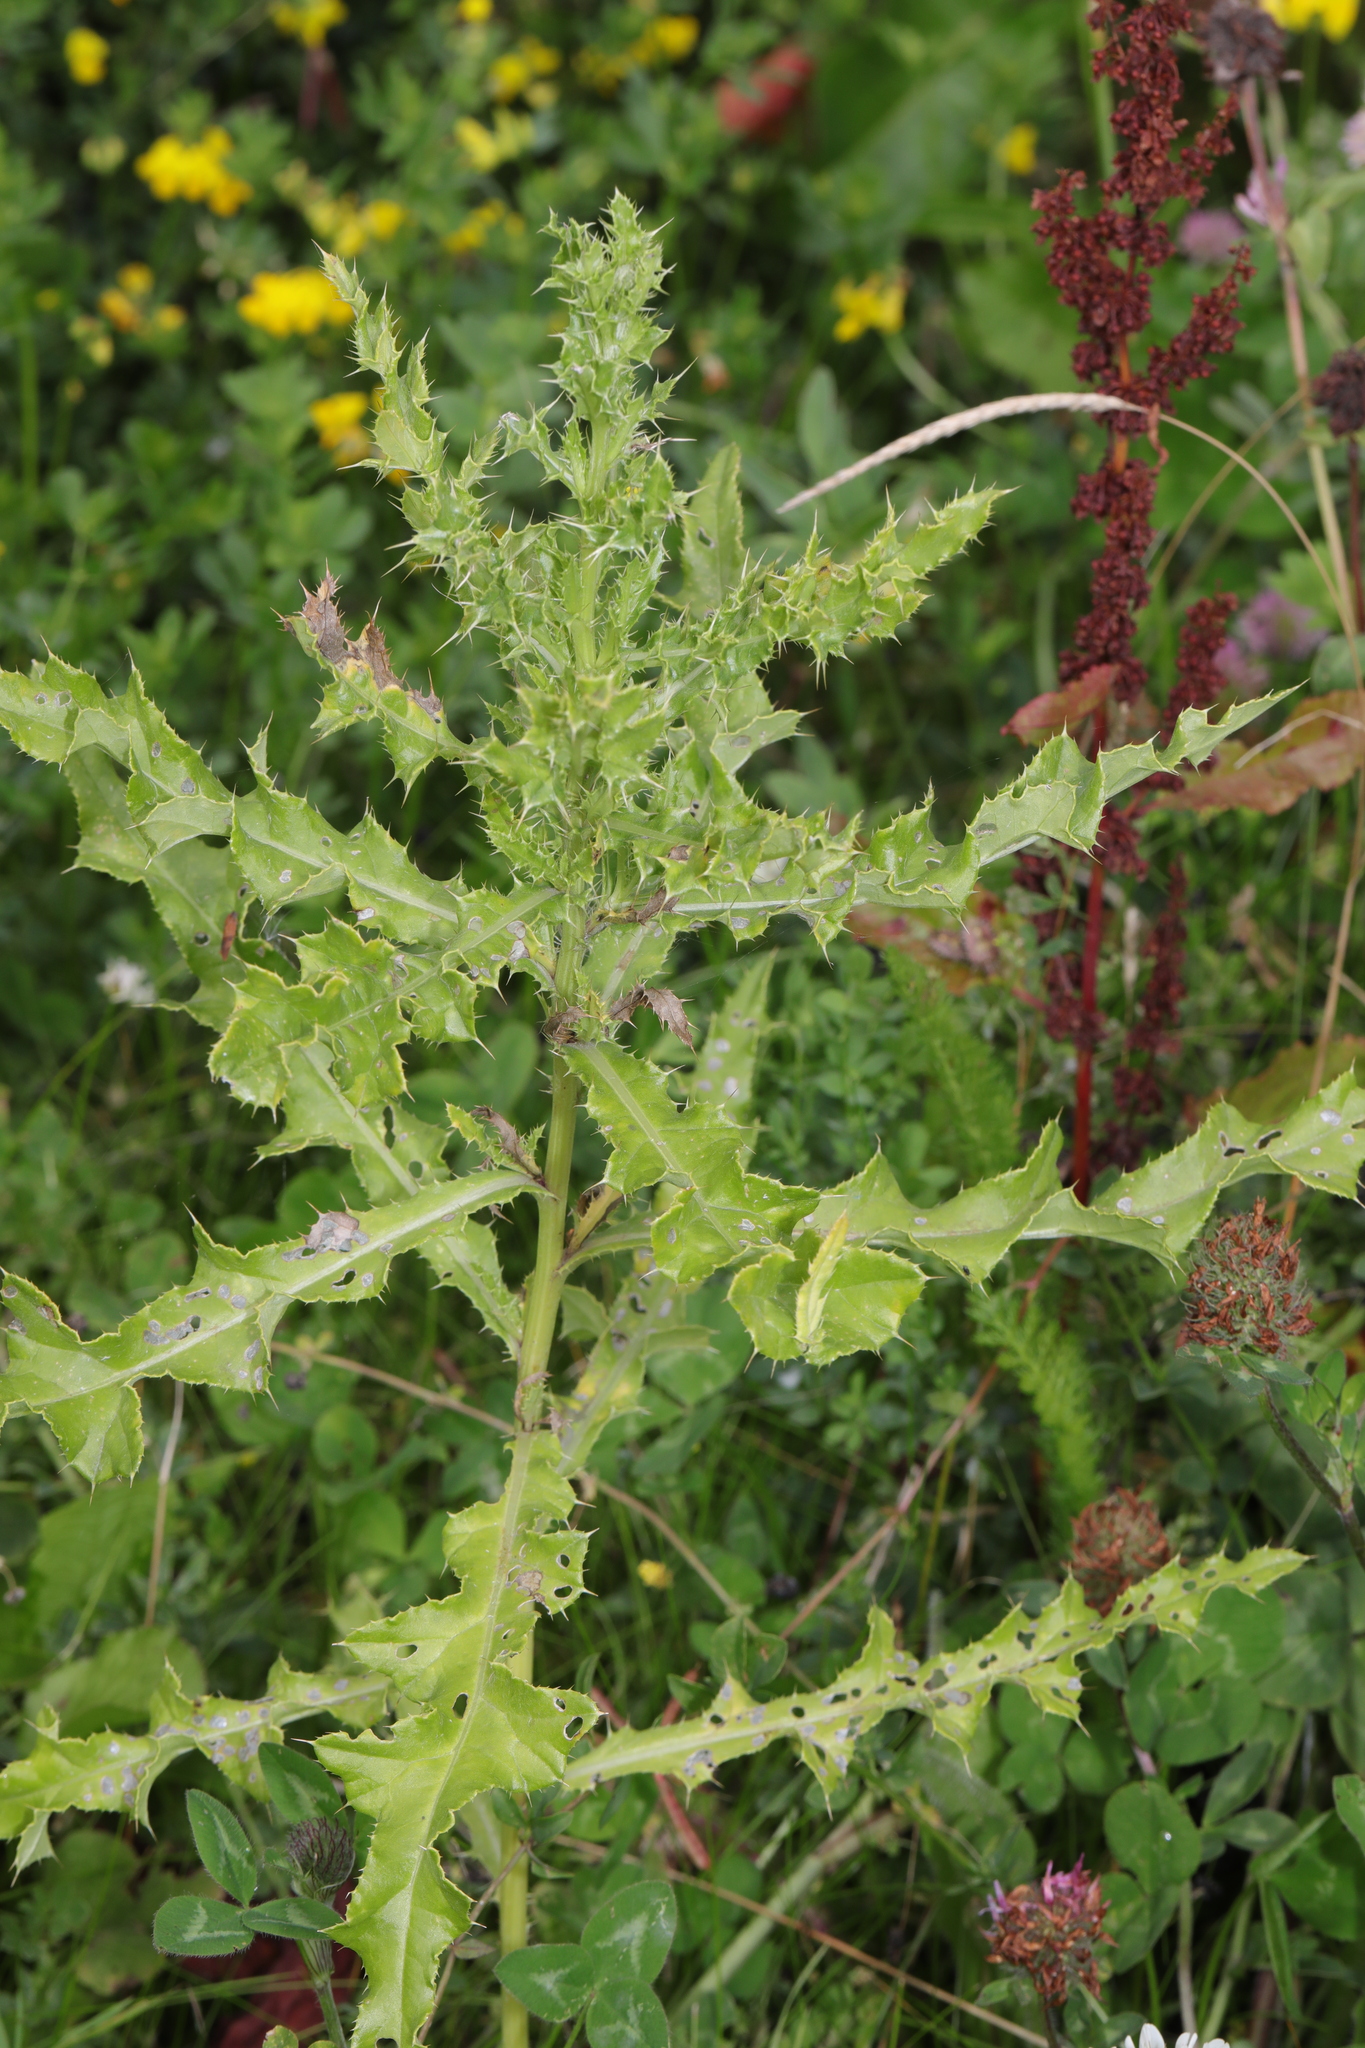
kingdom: Plantae
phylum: Tracheophyta
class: Magnoliopsida
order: Asterales
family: Asteraceae
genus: Cirsium
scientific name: Cirsium arvense
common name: Creeping thistle
